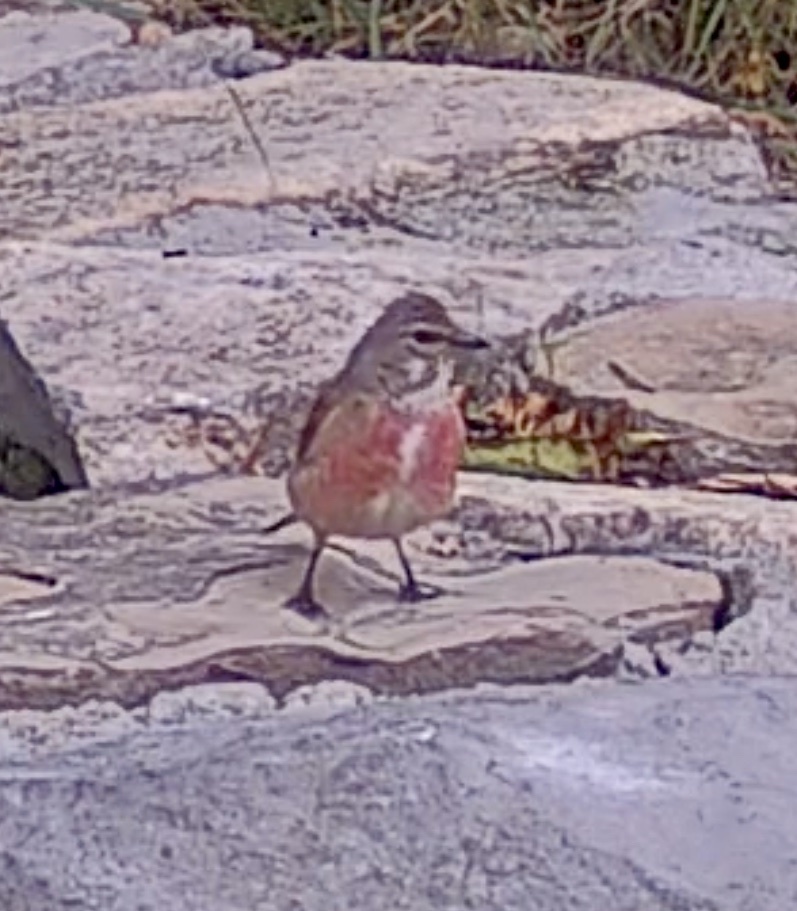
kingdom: Animalia
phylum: Chordata
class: Aves
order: Passeriformes
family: Fringillidae
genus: Linaria
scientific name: Linaria cannabina
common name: Common linnet
